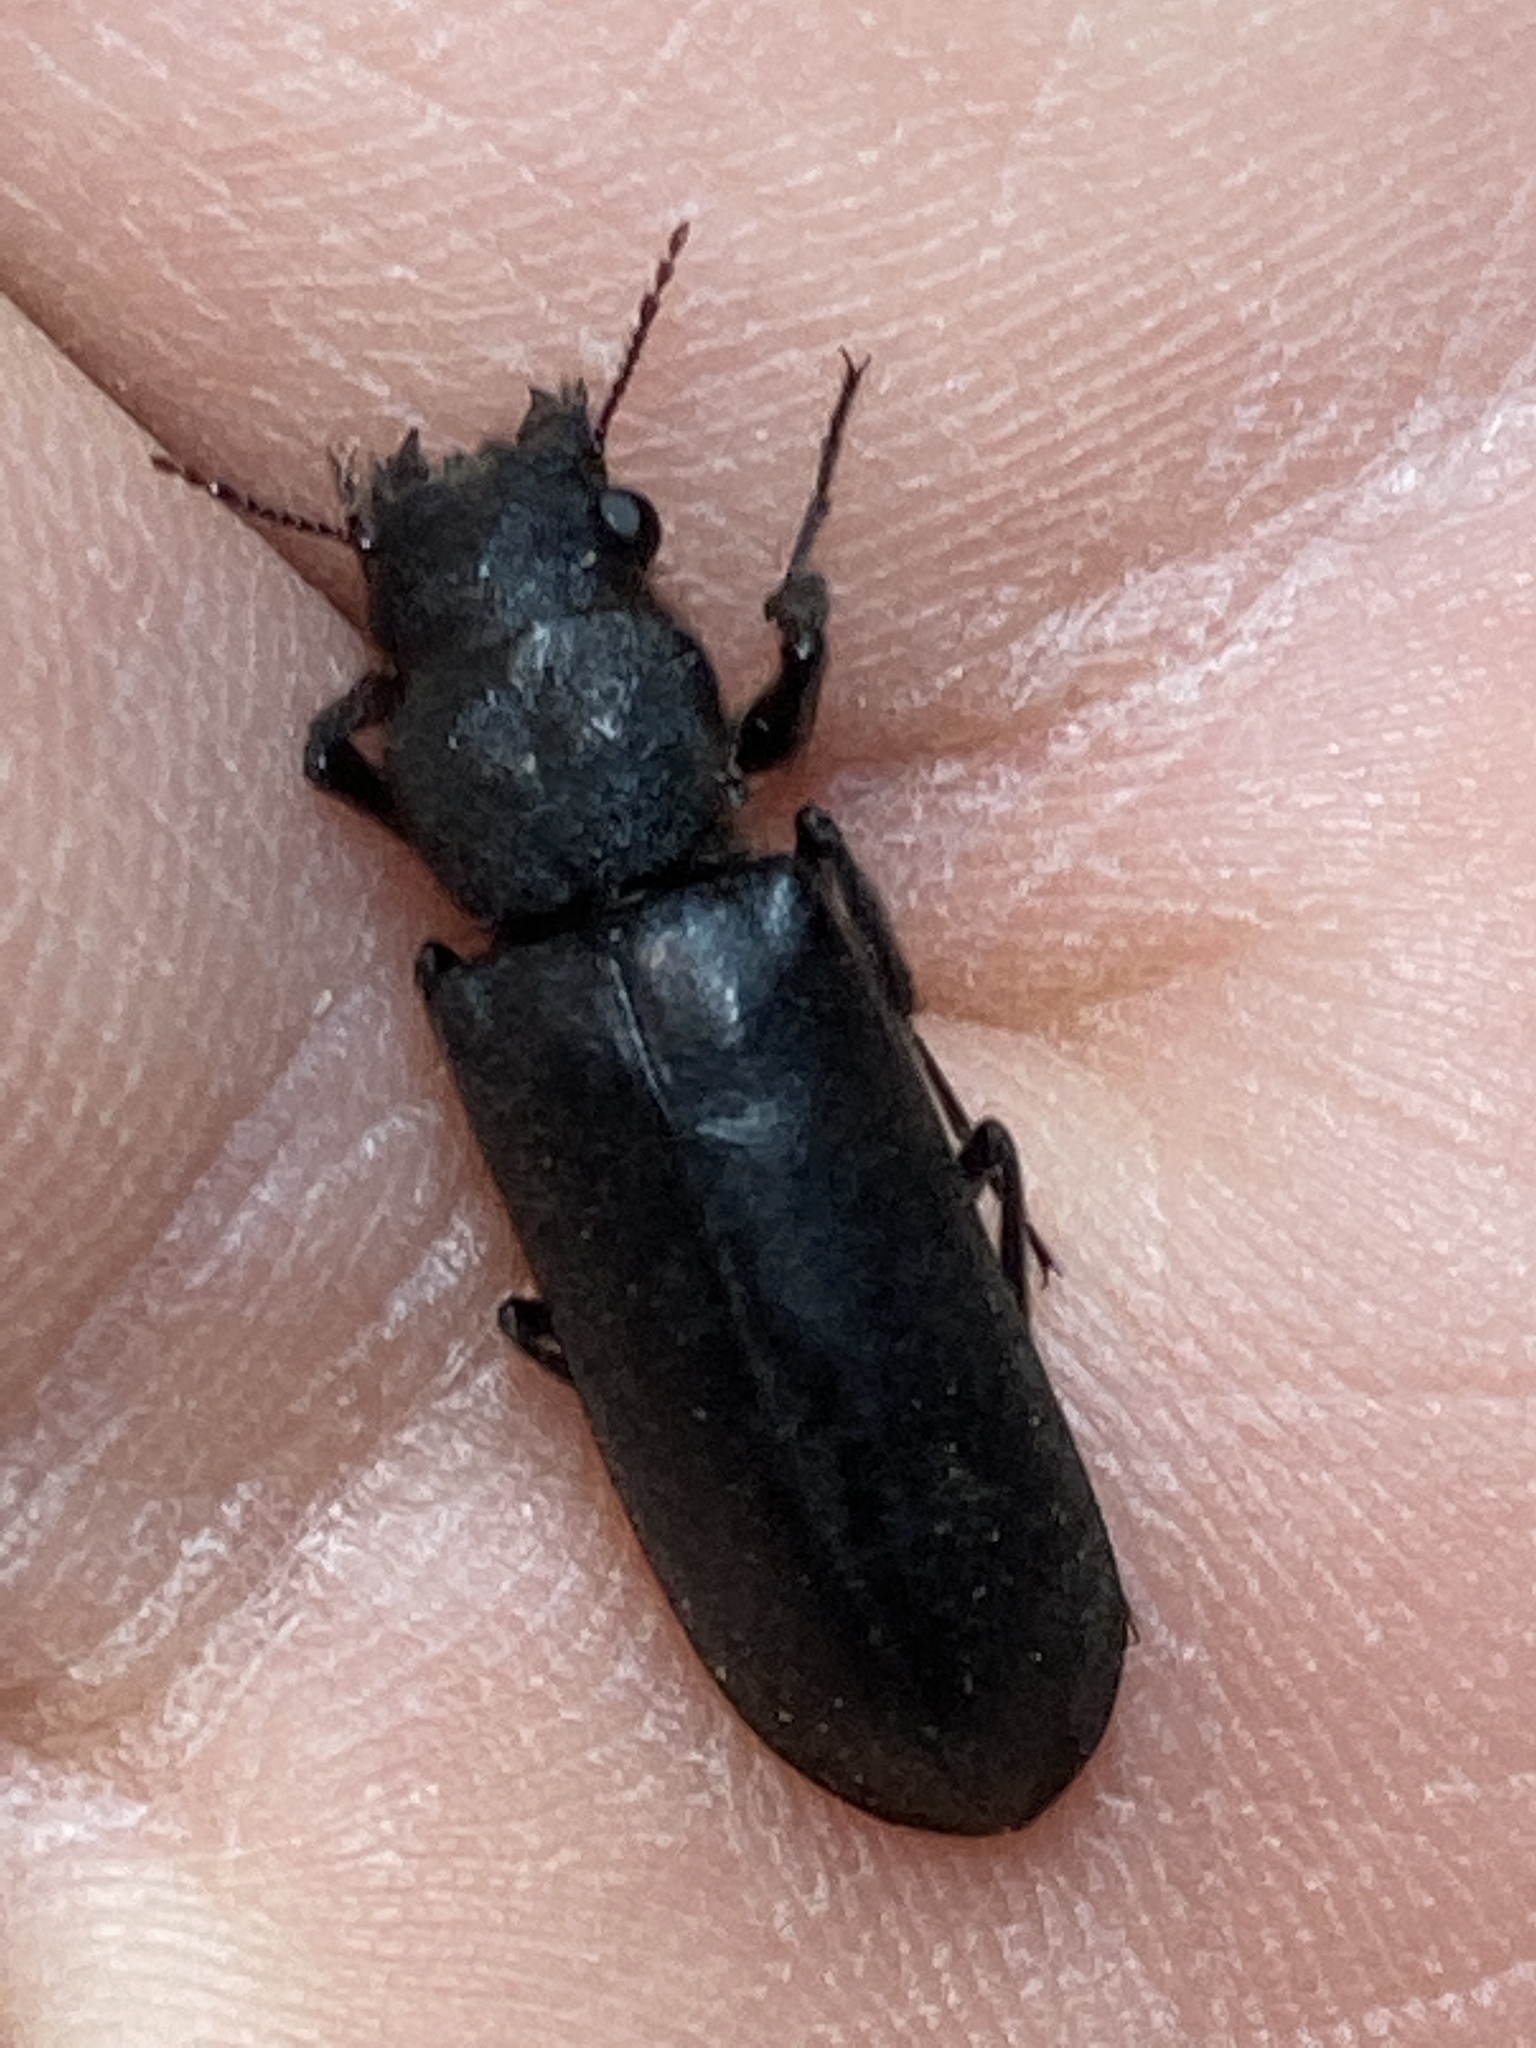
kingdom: Animalia
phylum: Arthropoda
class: Insecta
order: Coleoptera
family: Bostrichidae
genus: Polycaon
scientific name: Polycaon stoutii
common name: Powderpost beetle
